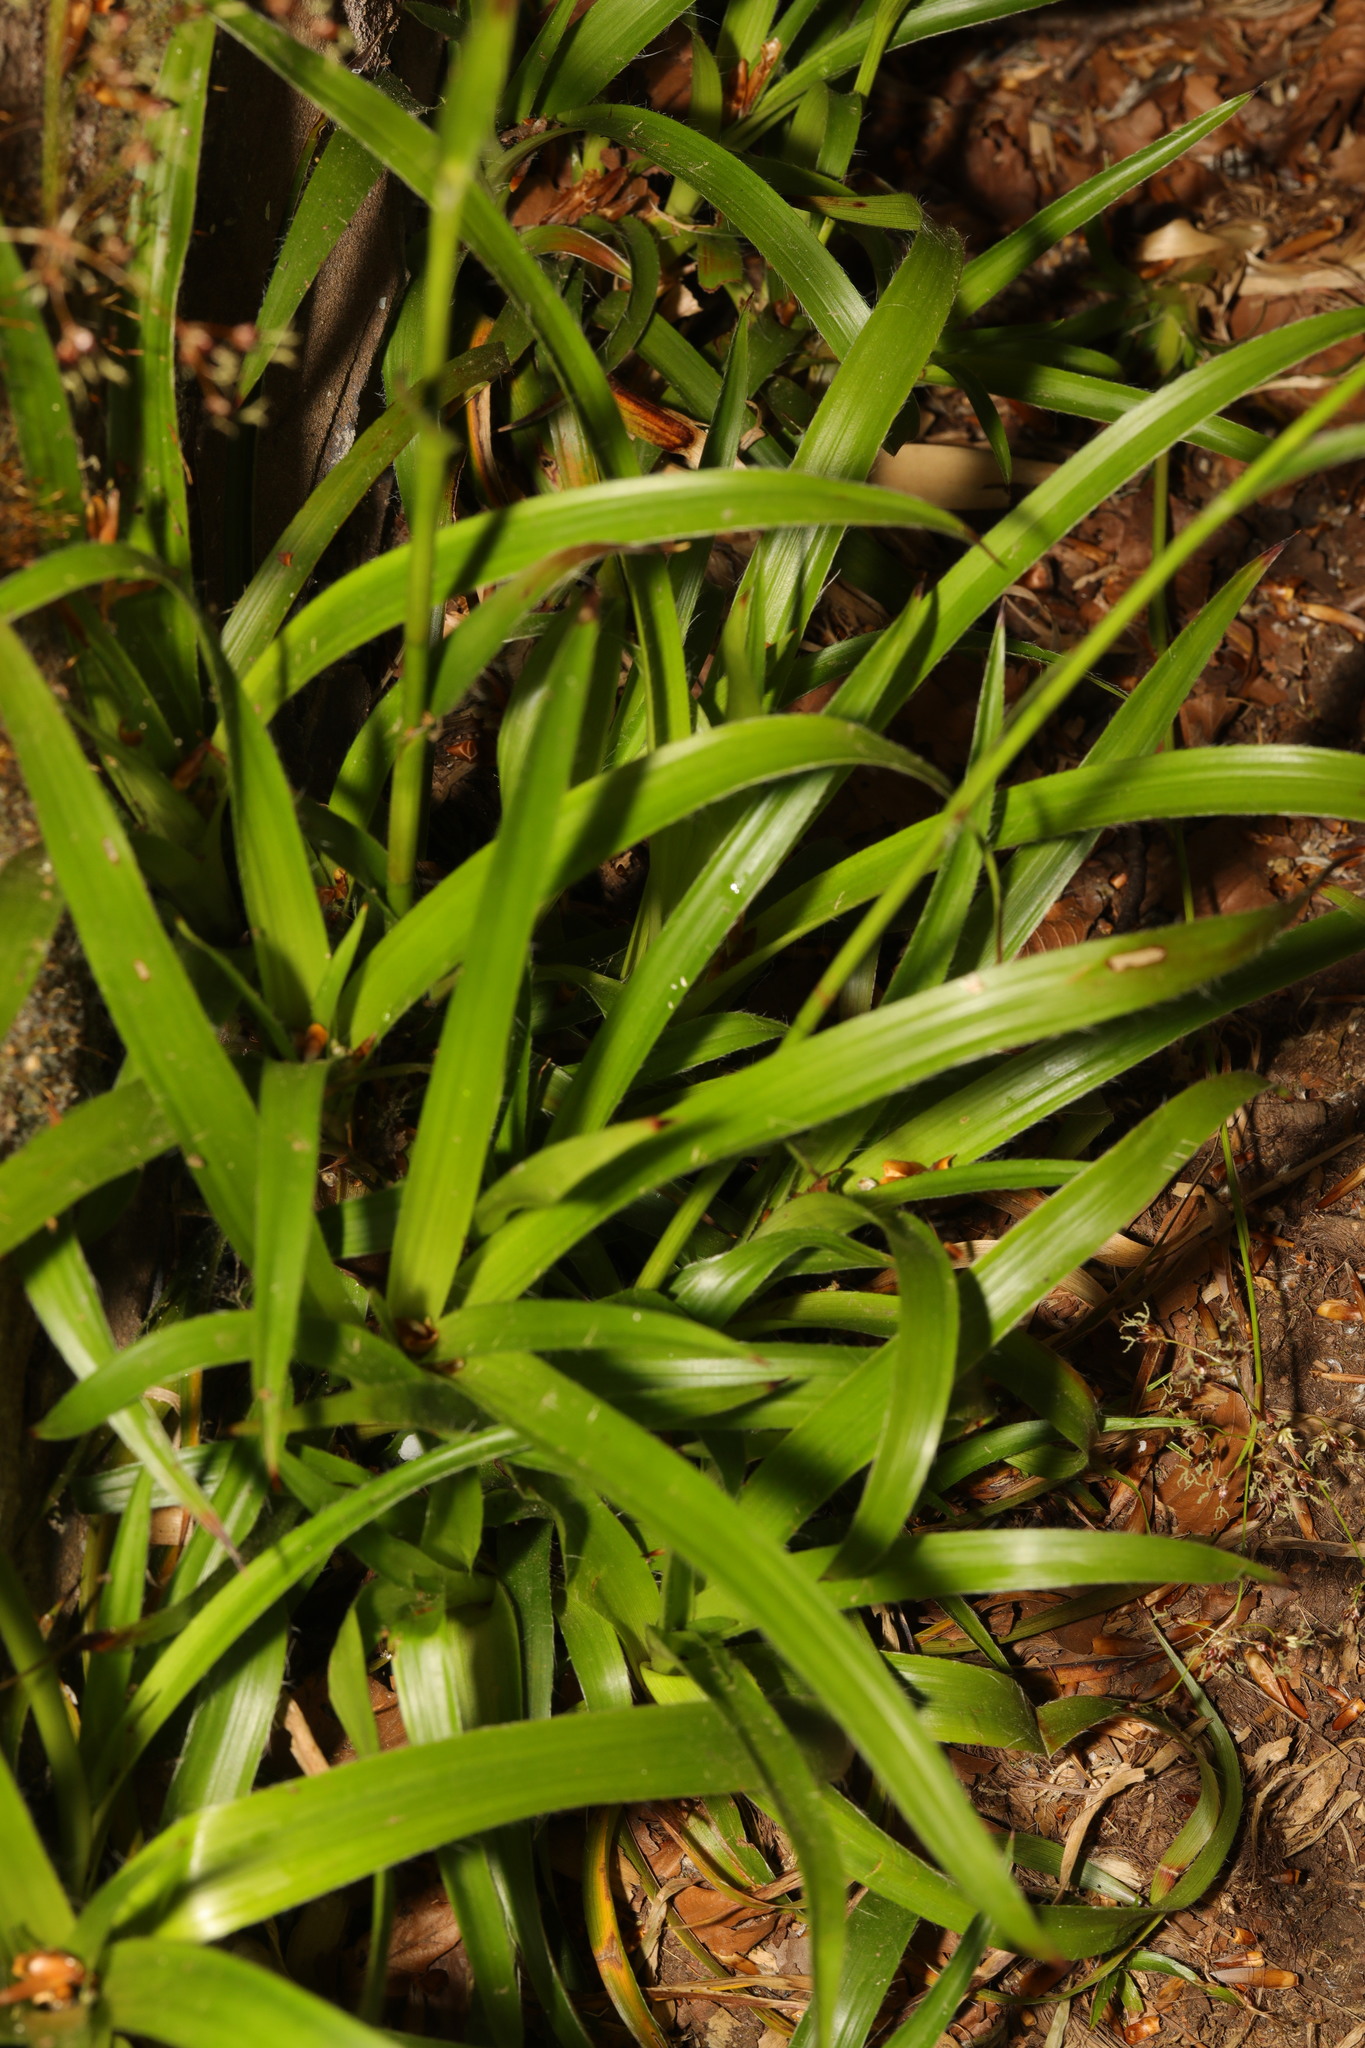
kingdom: Plantae
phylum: Tracheophyta
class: Liliopsida
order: Poales
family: Juncaceae
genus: Luzula
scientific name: Luzula sylvatica
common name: Great wood-rush
